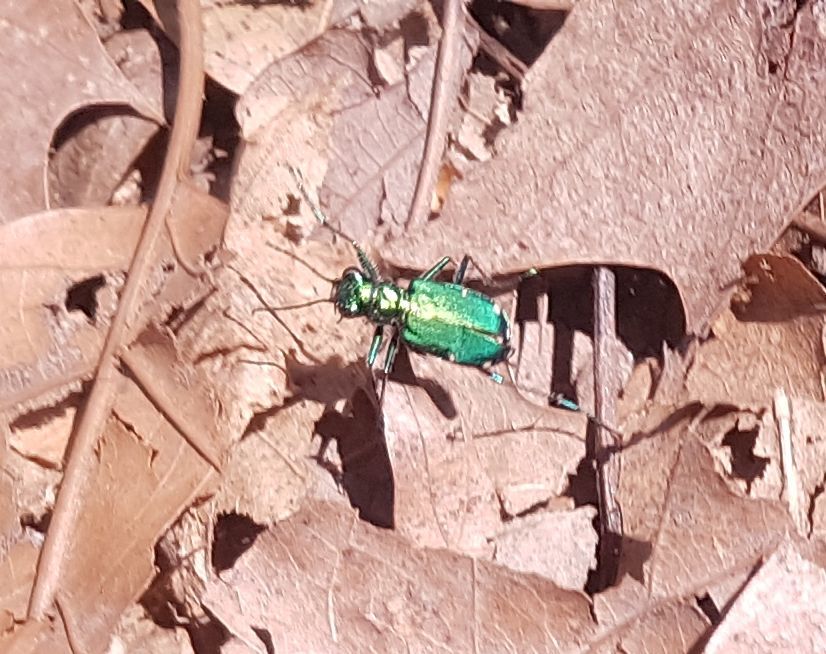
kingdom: Animalia
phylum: Arthropoda
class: Insecta
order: Coleoptera
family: Carabidae
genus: Cicindela
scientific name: Cicindela sexguttata
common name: Six-spotted tiger beetle
